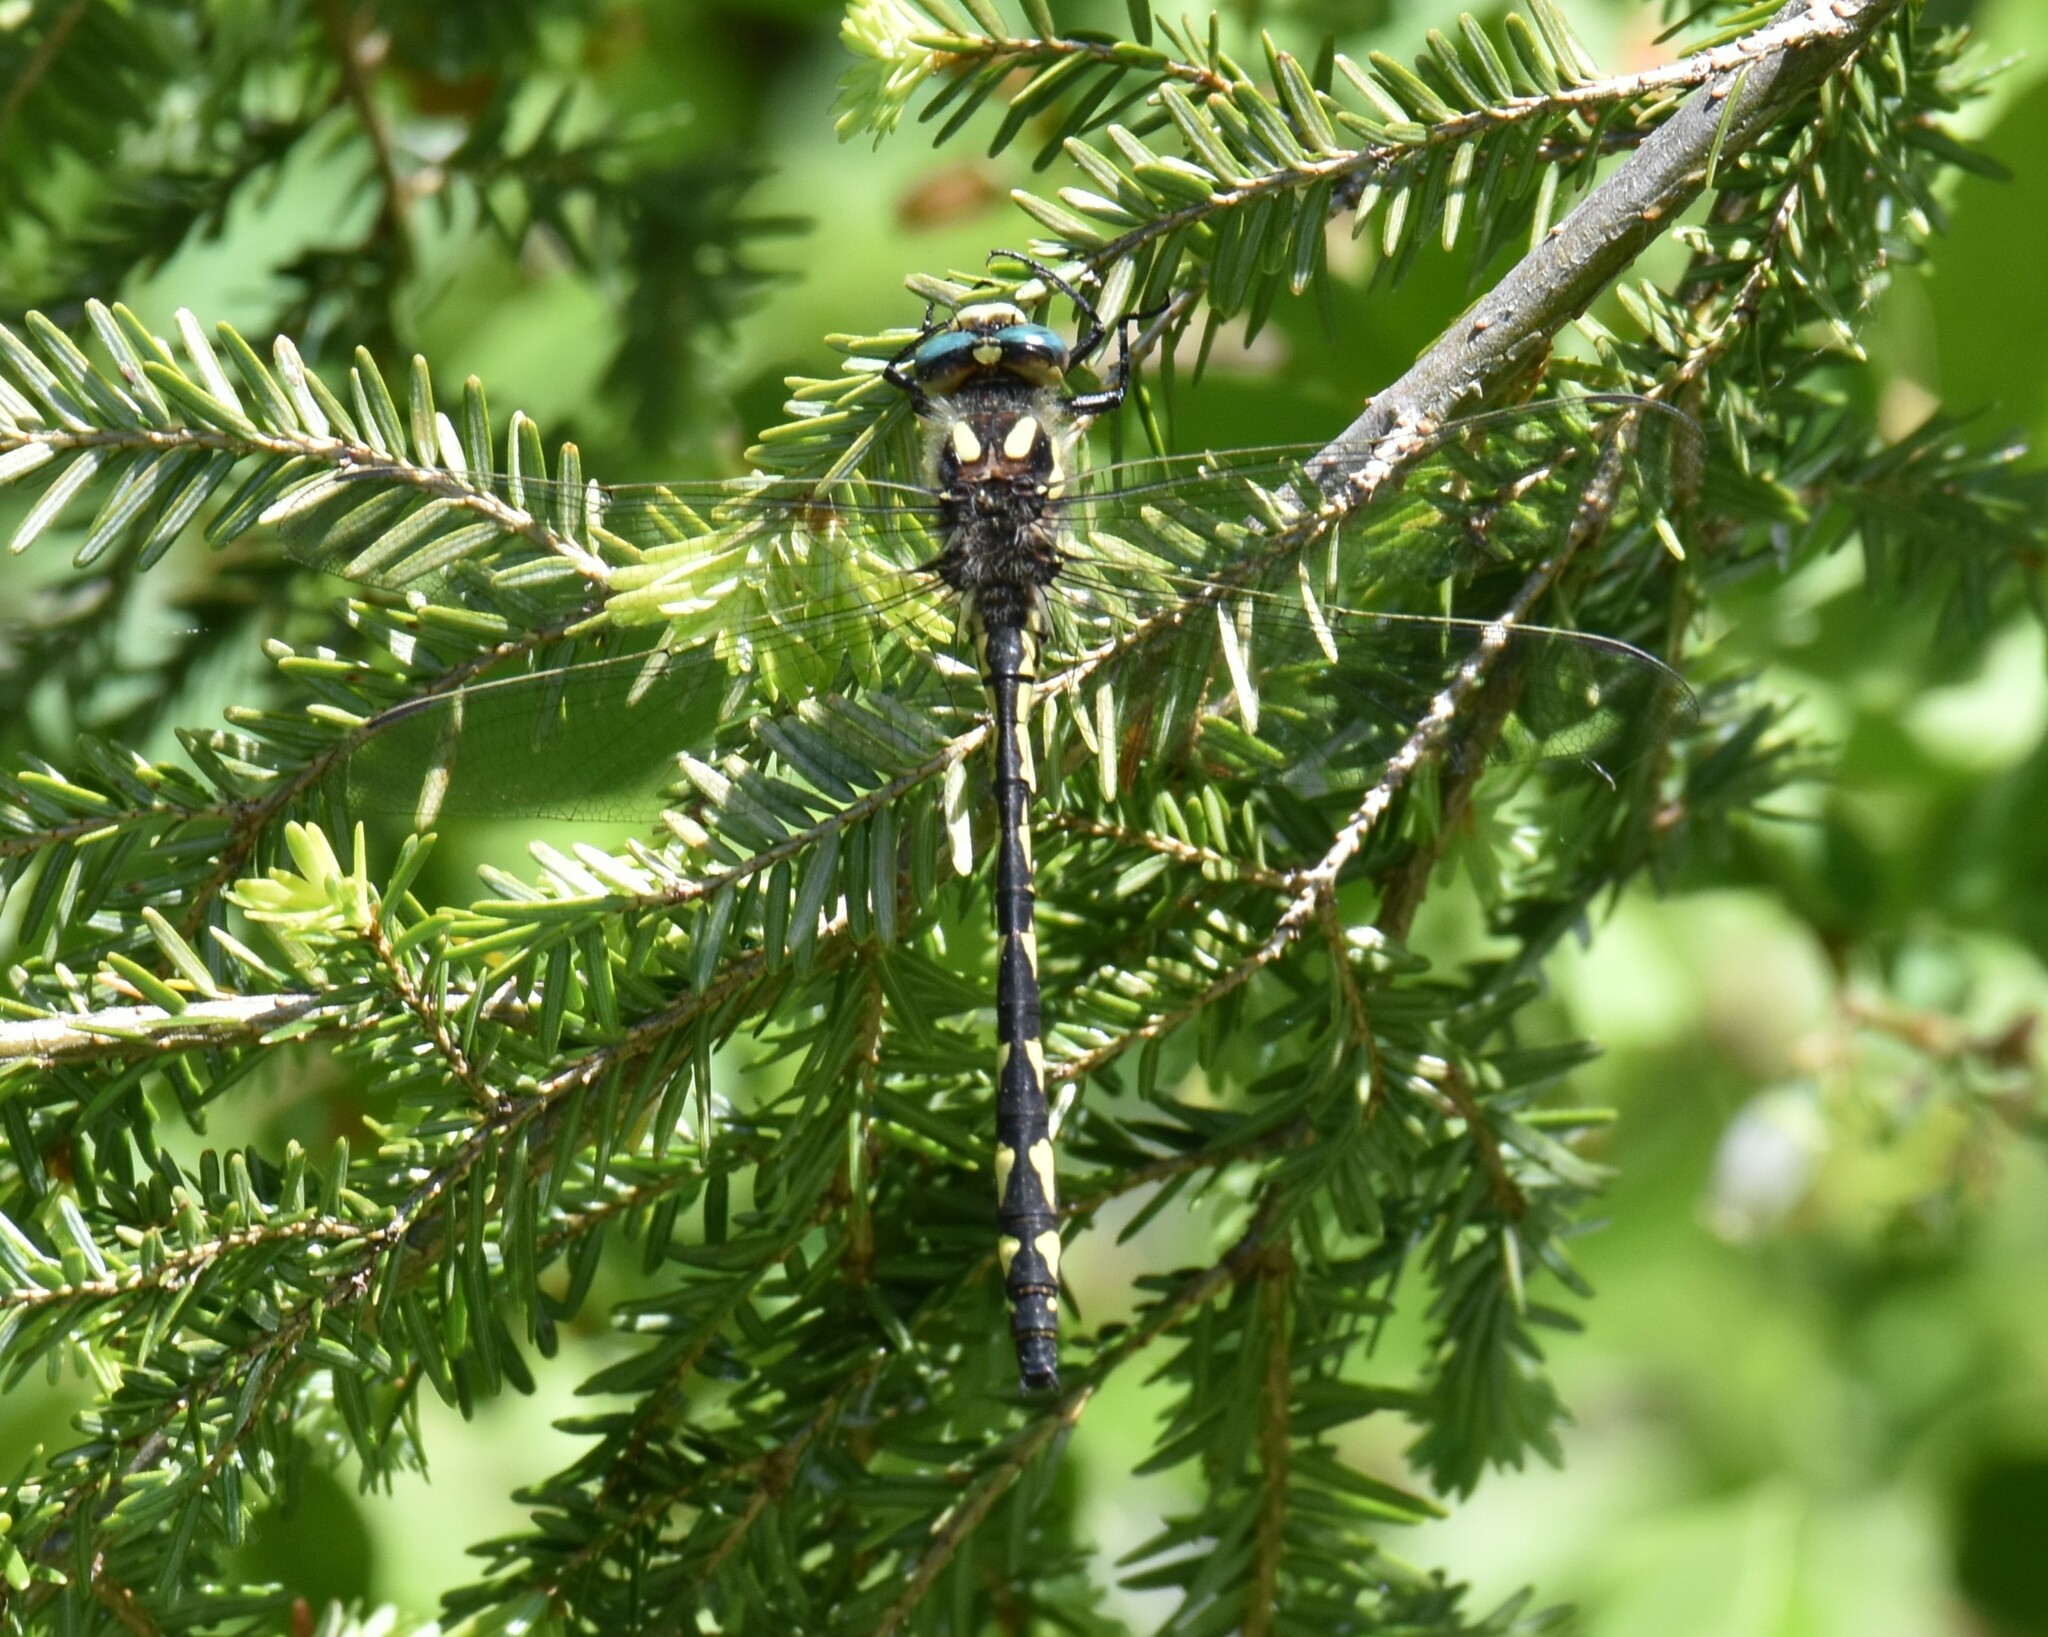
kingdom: Animalia
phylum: Arthropoda
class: Insecta
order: Odonata
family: Cordulegastridae
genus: Cordulegaster
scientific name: Cordulegaster diastatops
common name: Delta-spotted spiketail
